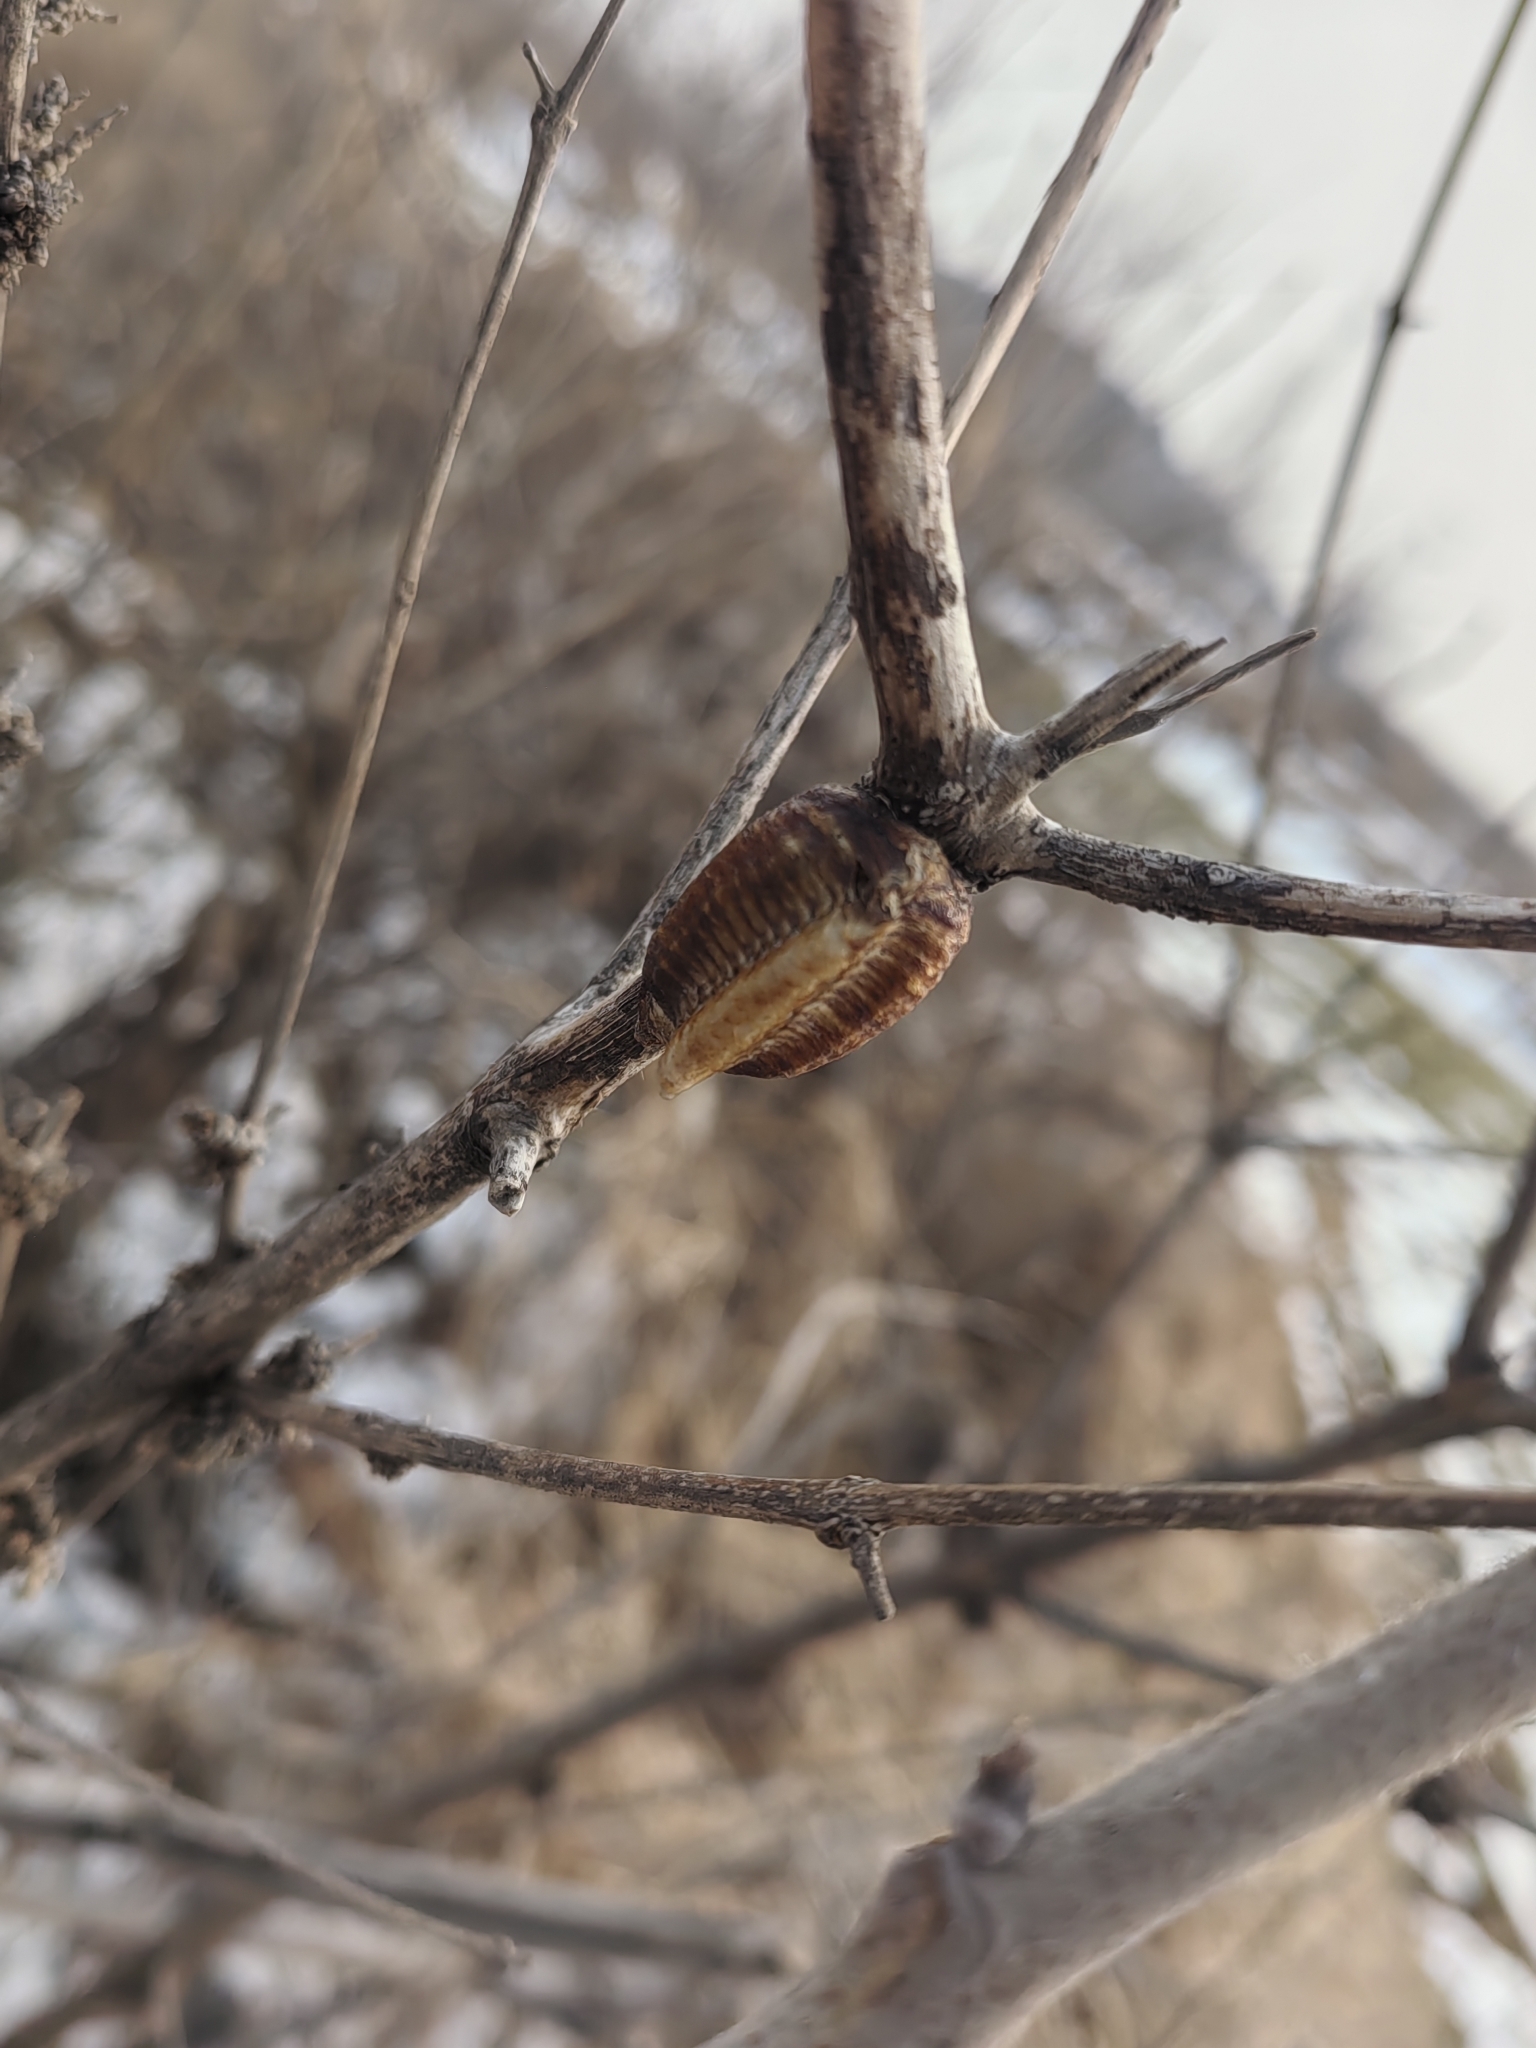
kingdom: Animalia
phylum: Arthropoda
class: Insecta
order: Mantodea
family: Mantidae
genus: Hierodula
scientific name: Hierodula patellifera
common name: Asian mantis
